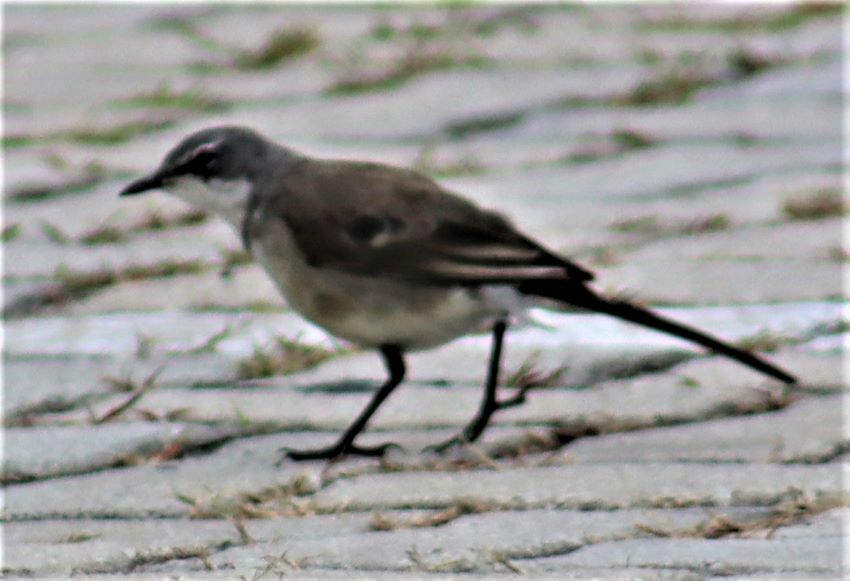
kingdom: Animalia
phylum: Chordata
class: Aves
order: Passeriformes
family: Motacillidae
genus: Motacilla
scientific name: Motacilla capensis
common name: Cape wagtail
